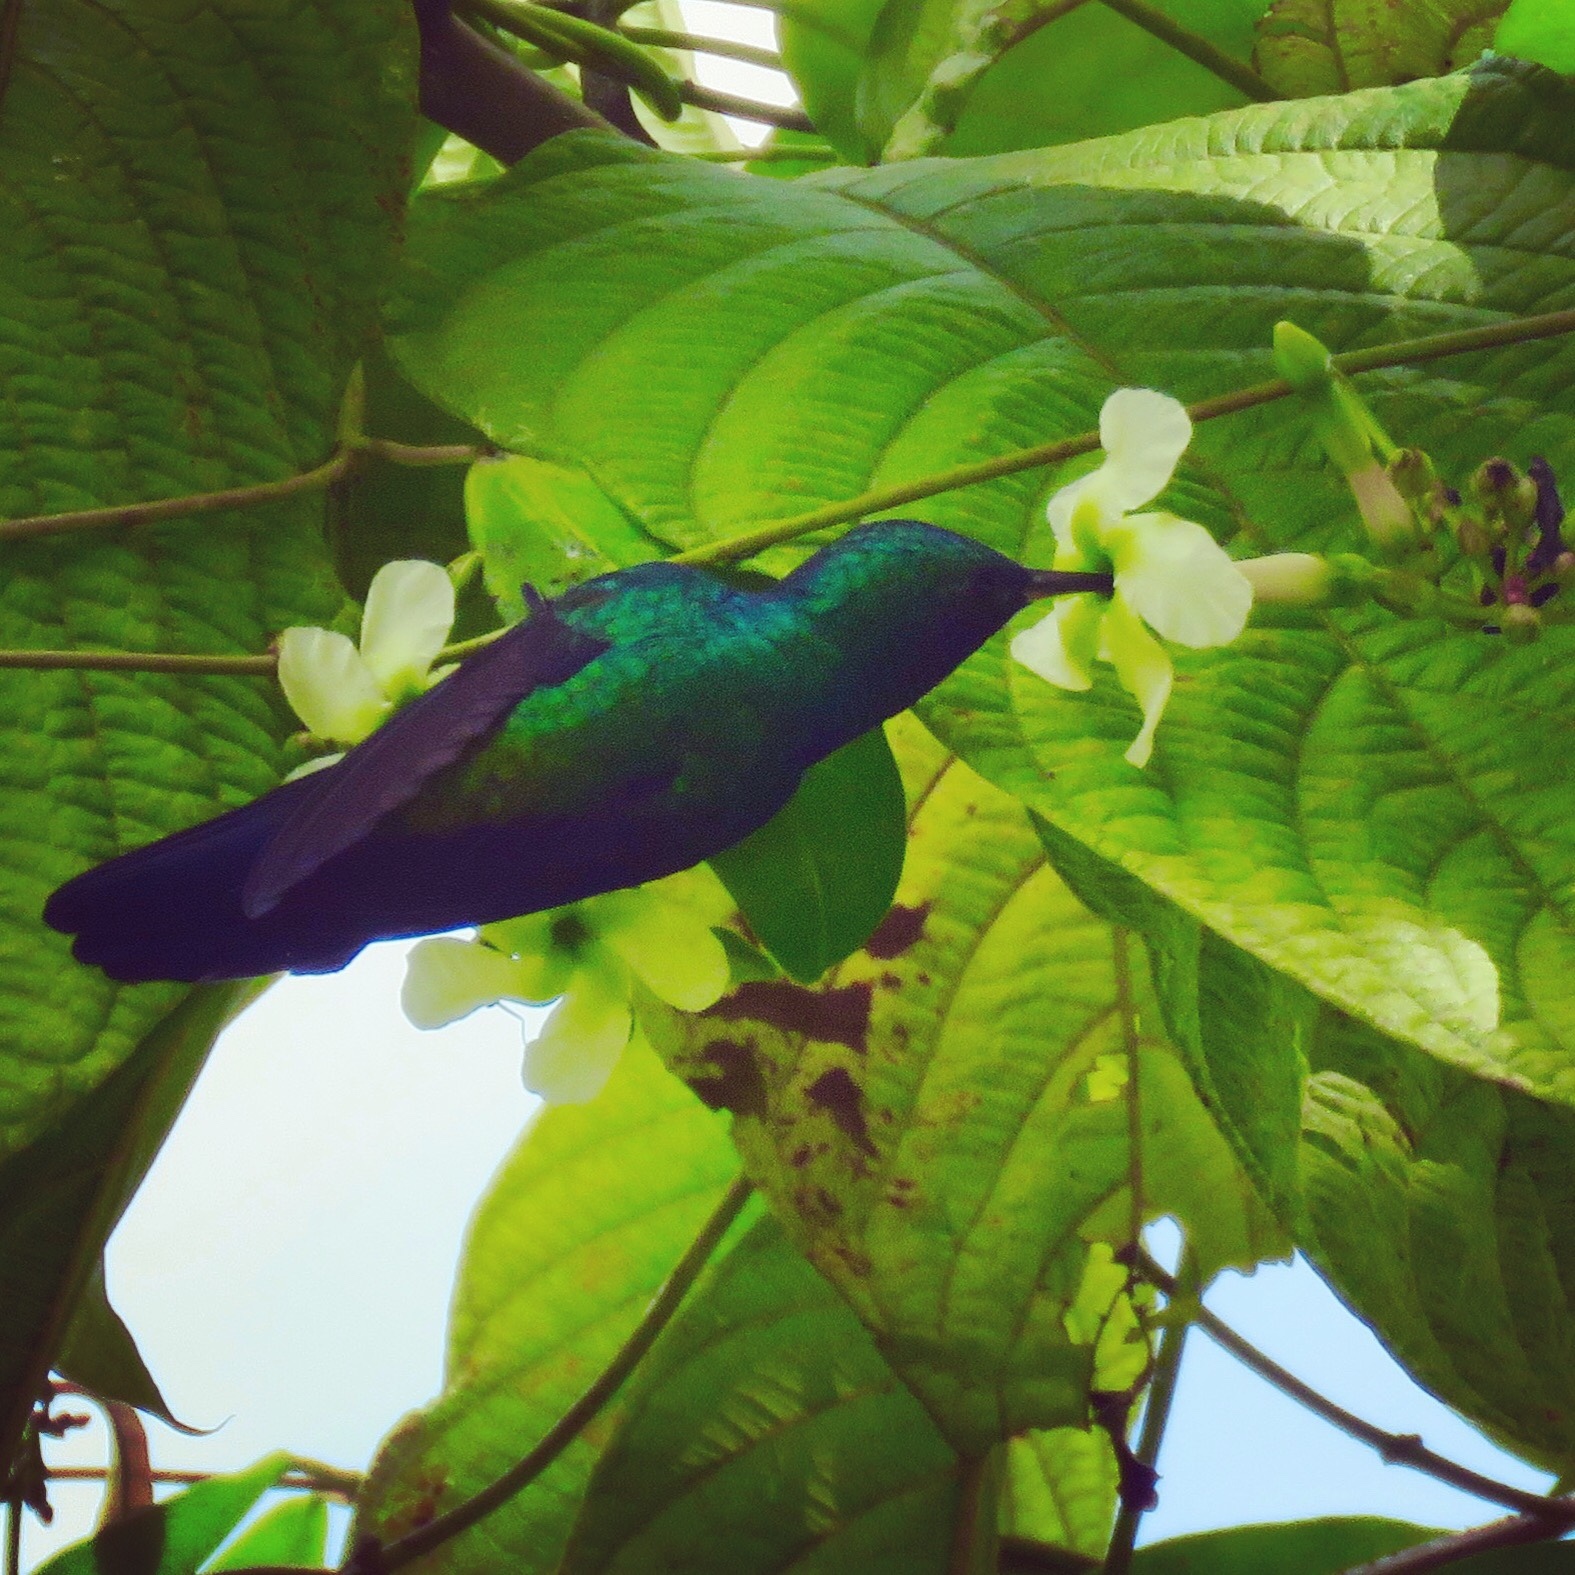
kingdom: Animalia
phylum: Chordata
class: Aves
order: Apodiformes
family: Trochilidae
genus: Chlorostilbon
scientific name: Chlorostilbon assimilis
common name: Garden emerald
